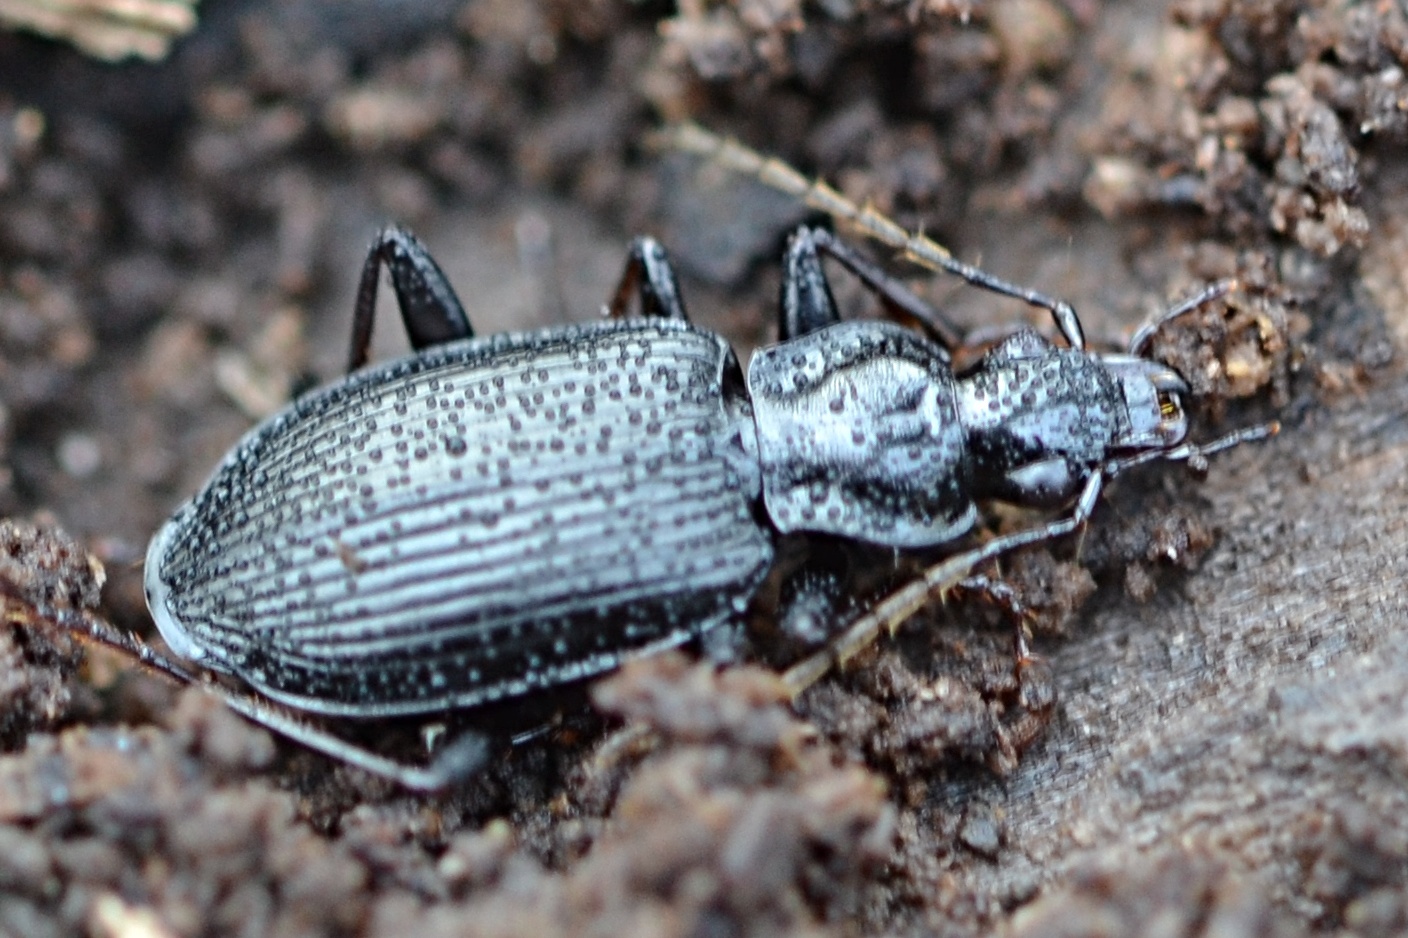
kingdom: Animalia
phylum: Arthropoda
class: Insecta
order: Coleoptera
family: Carabidae
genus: Platynus
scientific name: Platynus assimilis
